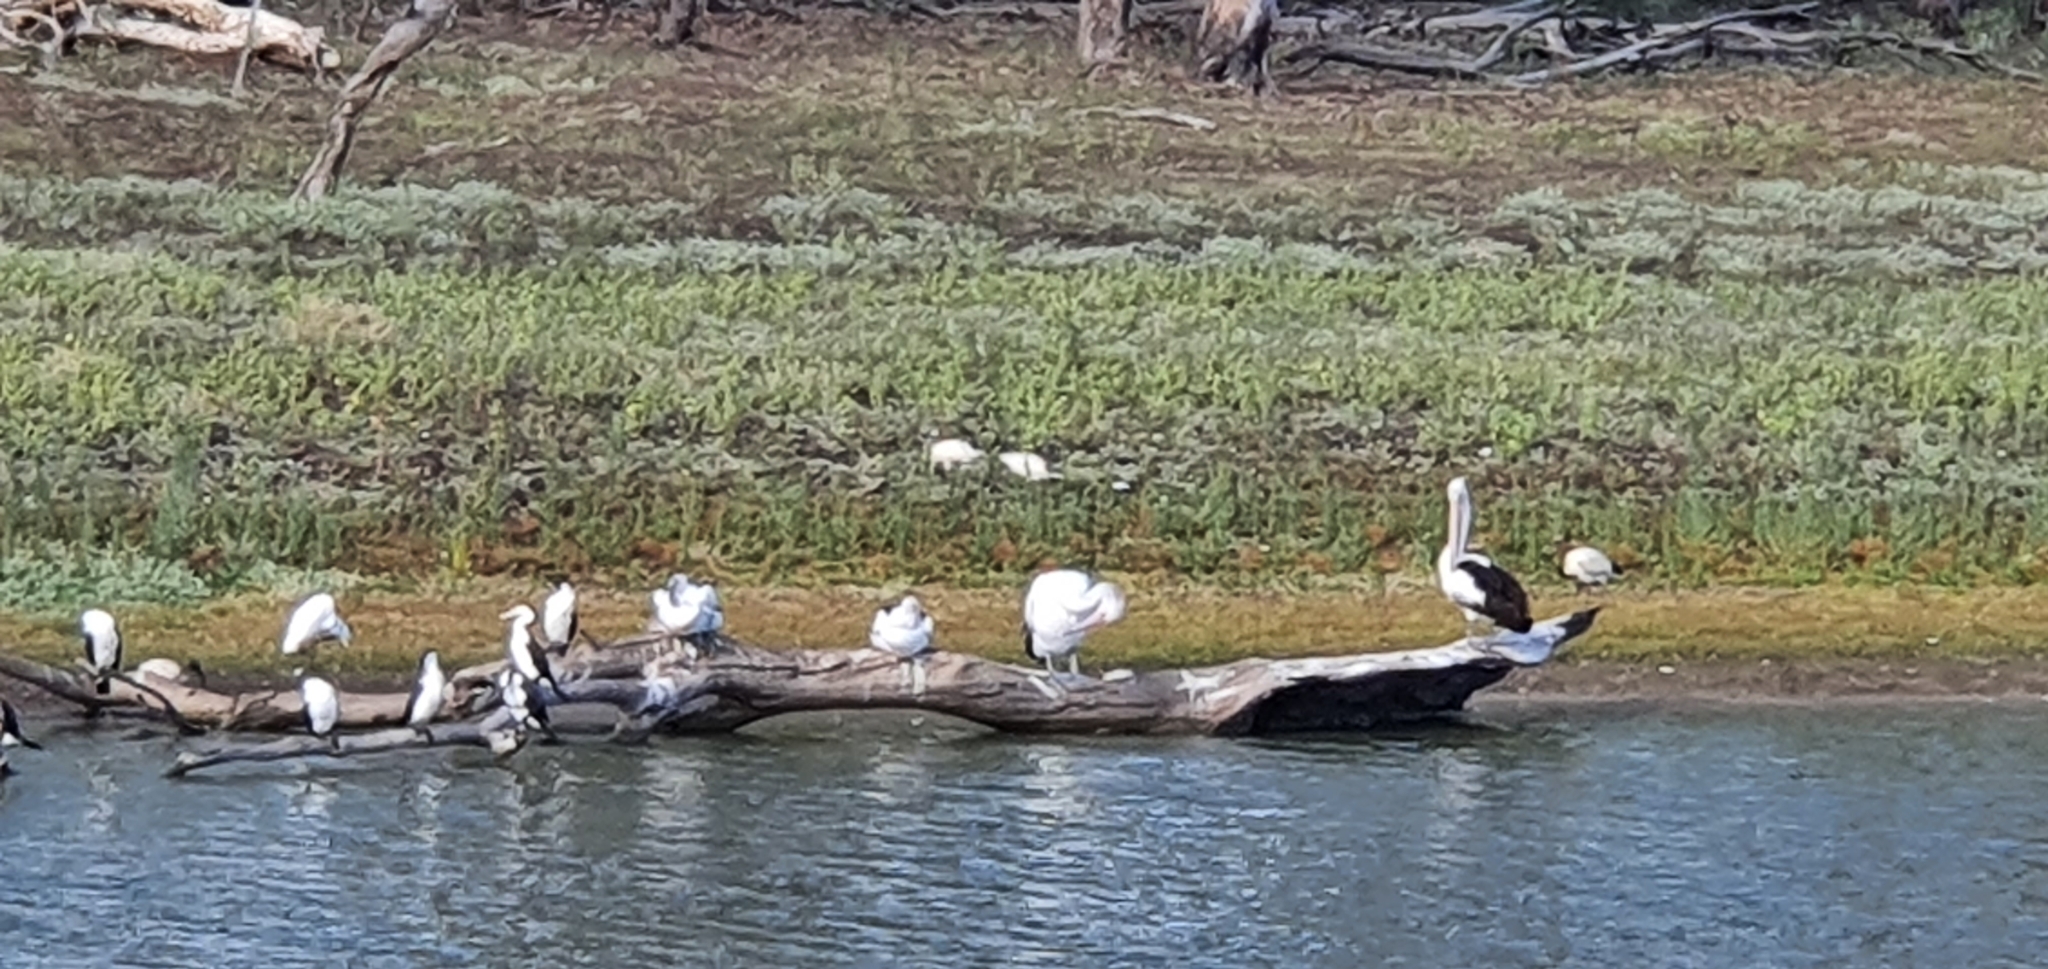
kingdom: Animalia
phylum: Chordata
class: Aves
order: Pelecaniformes
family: Pelecanidae
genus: Pelecanus
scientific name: Pelecanus conspicillatus
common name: Australian pelican
